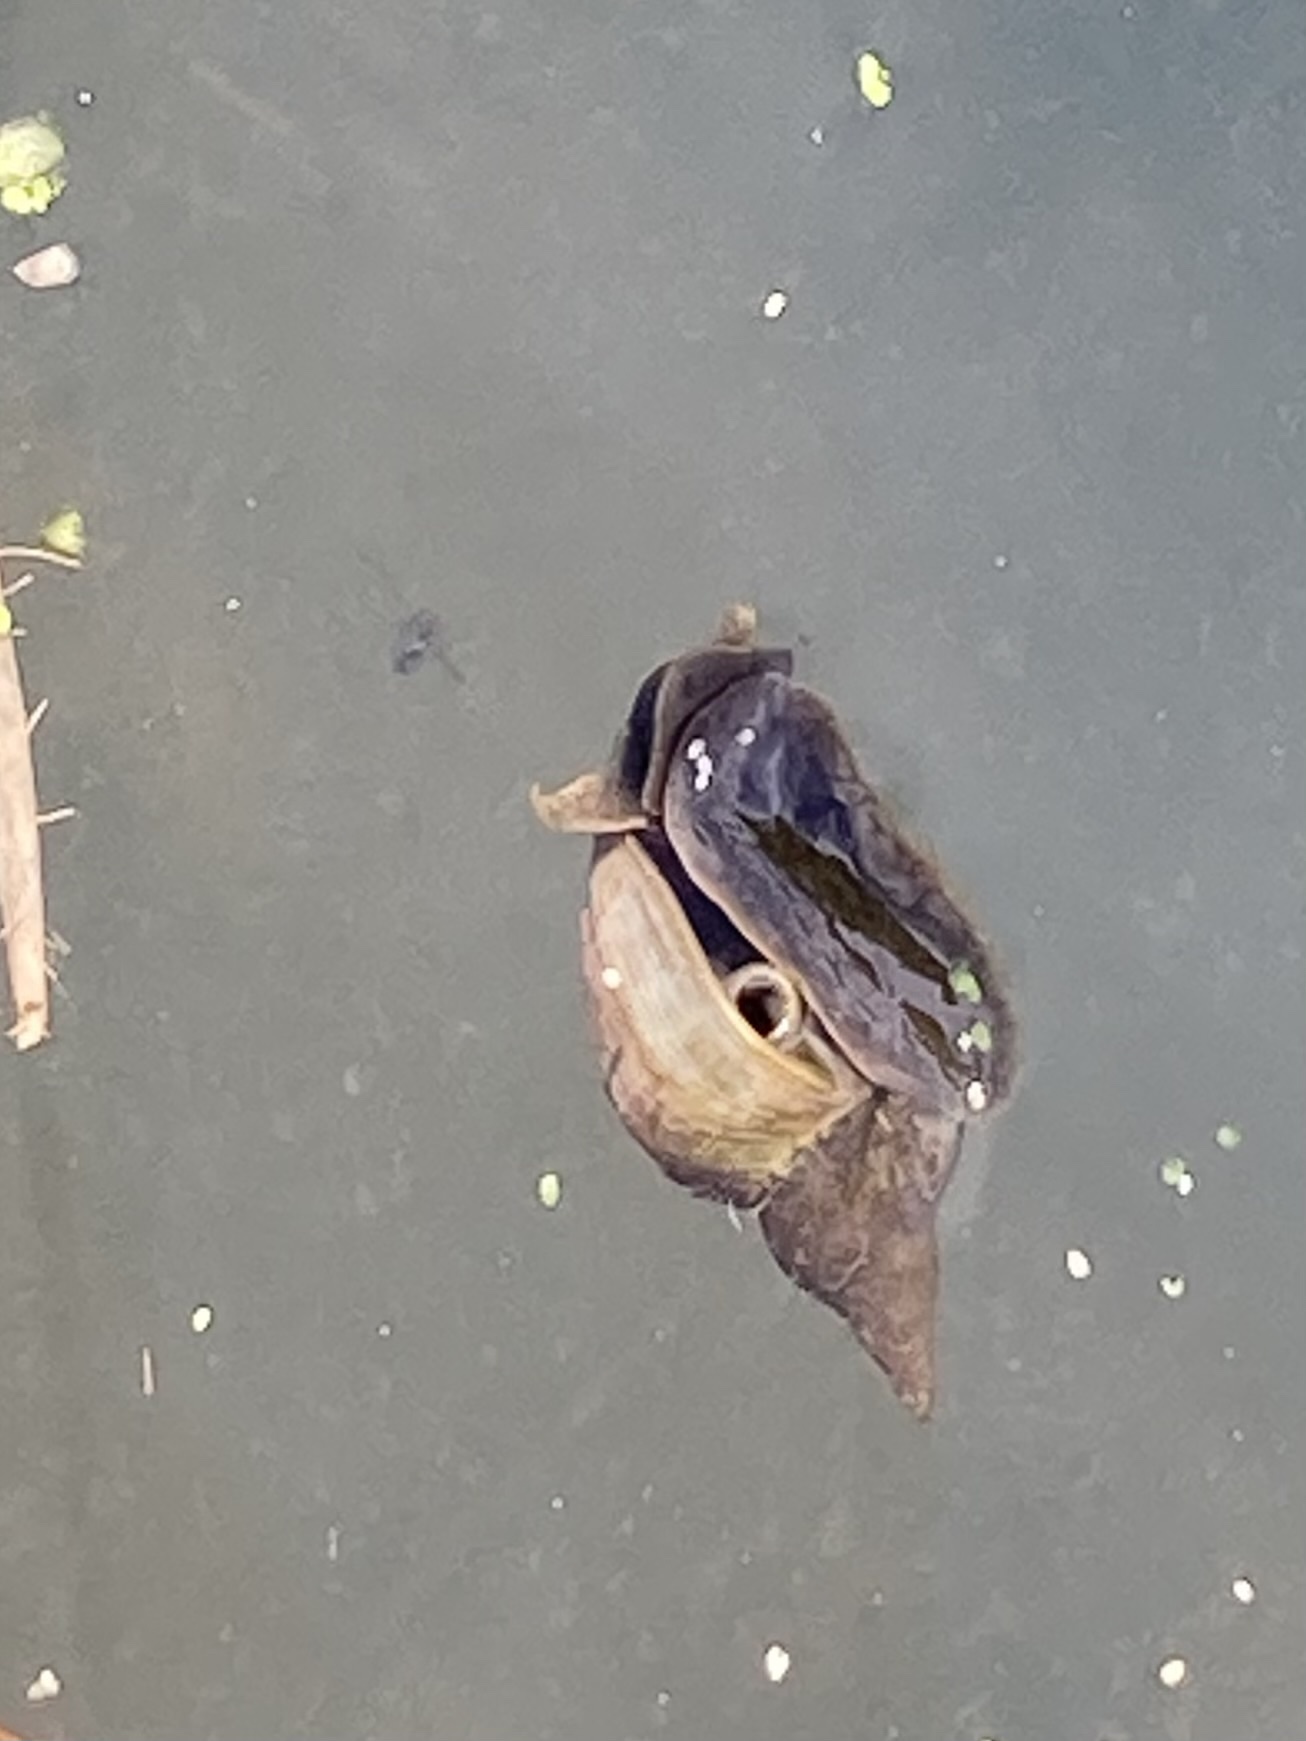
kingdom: Animalia
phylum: Mollusca
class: Gastropoda
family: Lymnaeidae
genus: Lymnaea
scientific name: Lymnaea stagnalis
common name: Great pond snail
